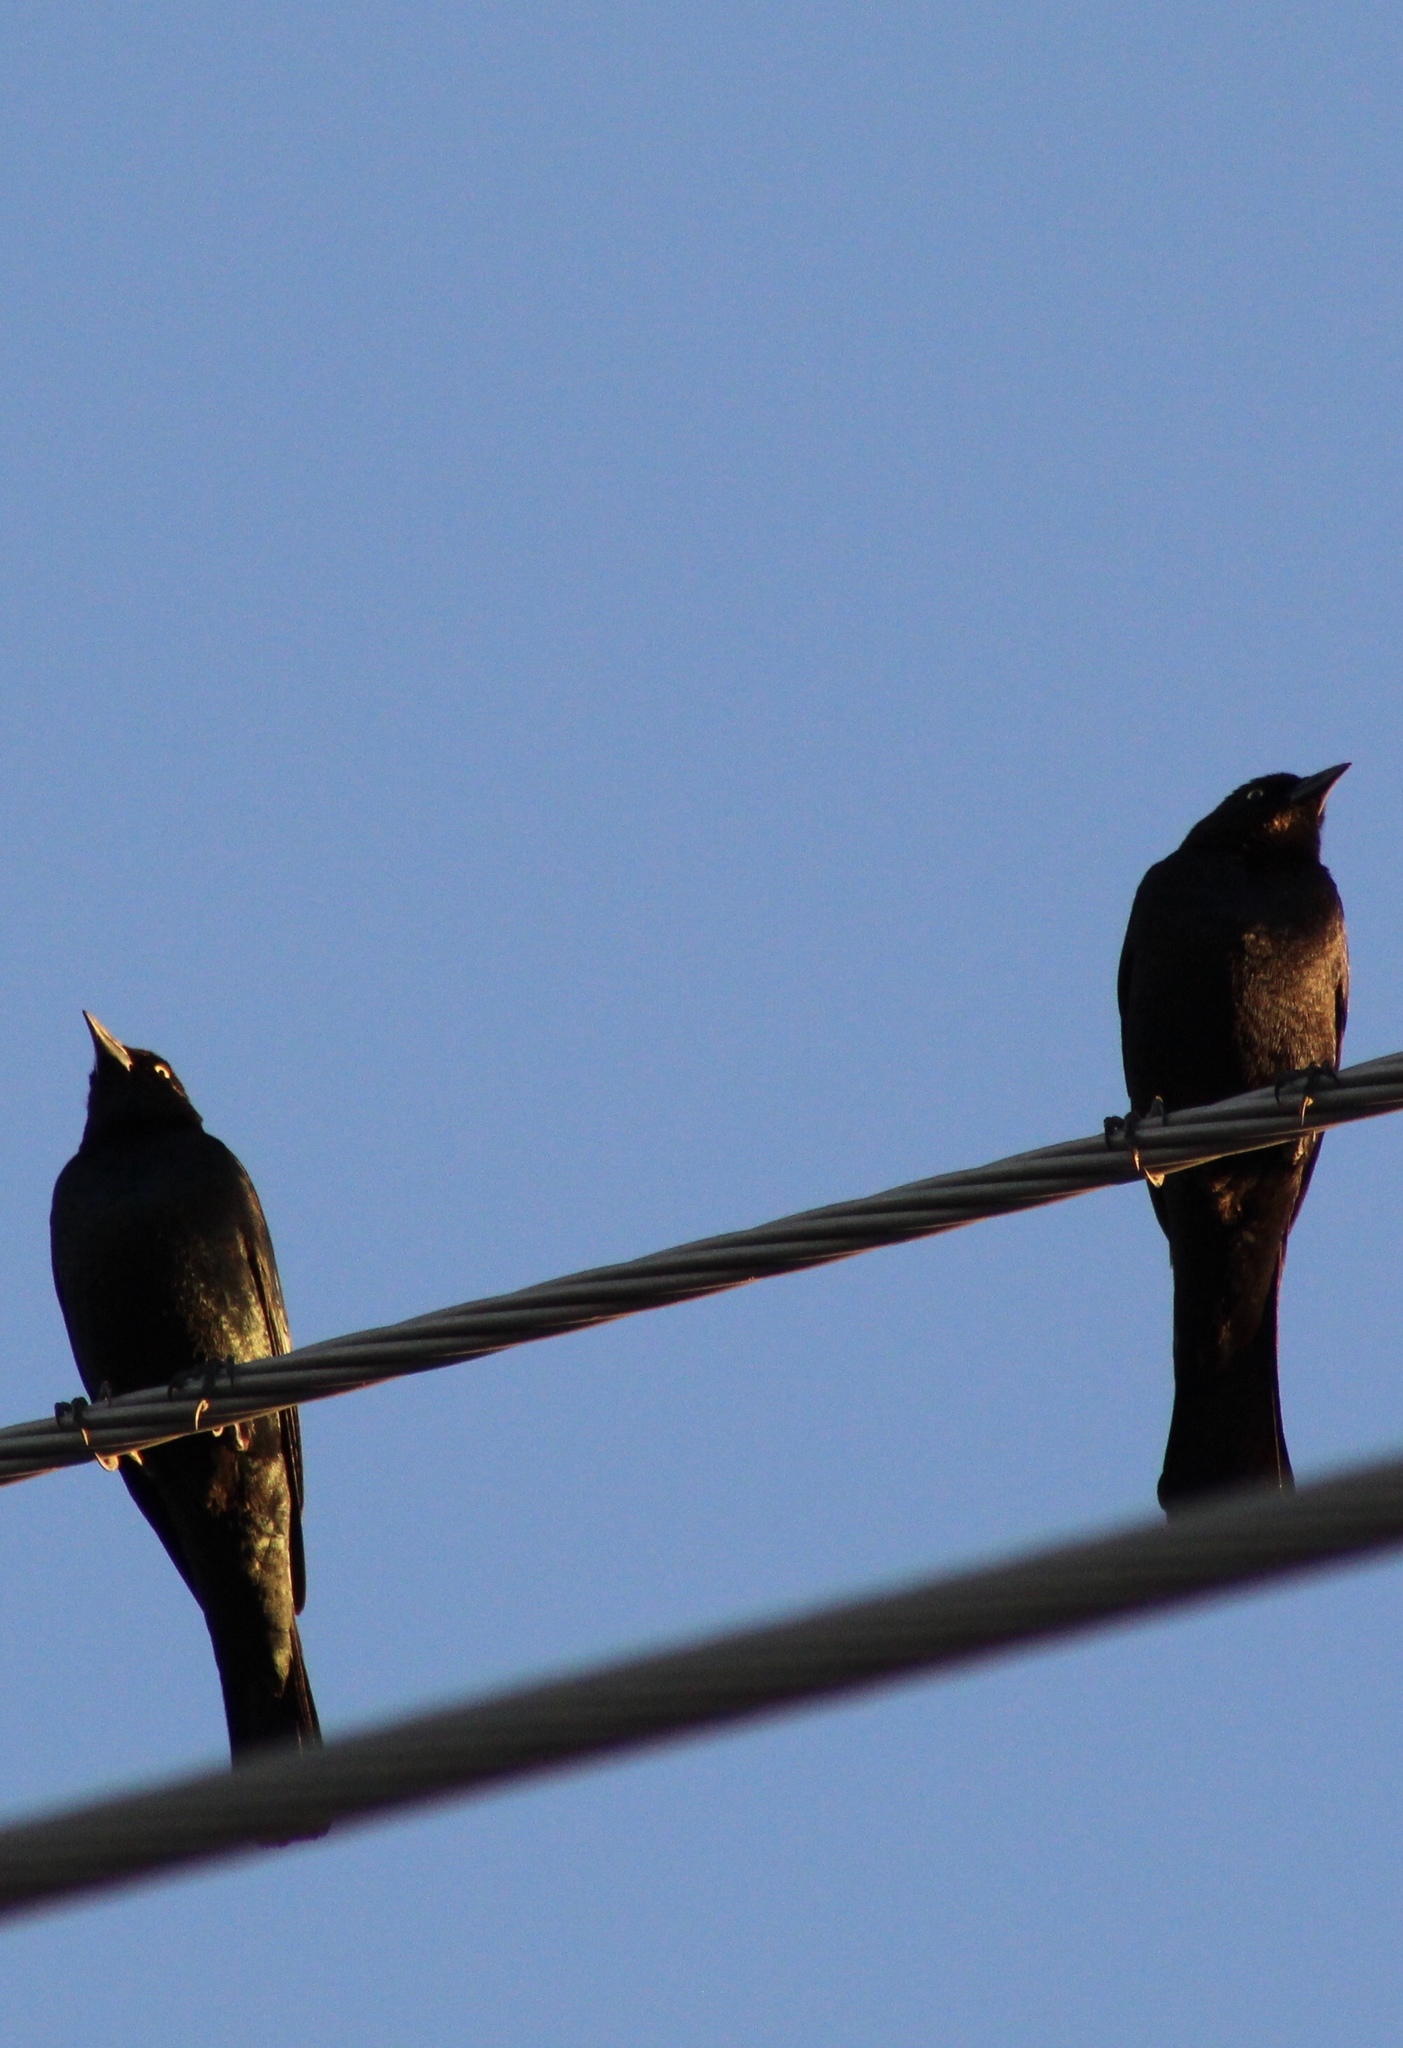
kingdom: Animalia
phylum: Chordata
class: Aves
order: Passeriformes
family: Icteridae
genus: Euphagus
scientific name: Euphagus cyanocephalus
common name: Brewer's blackbird
